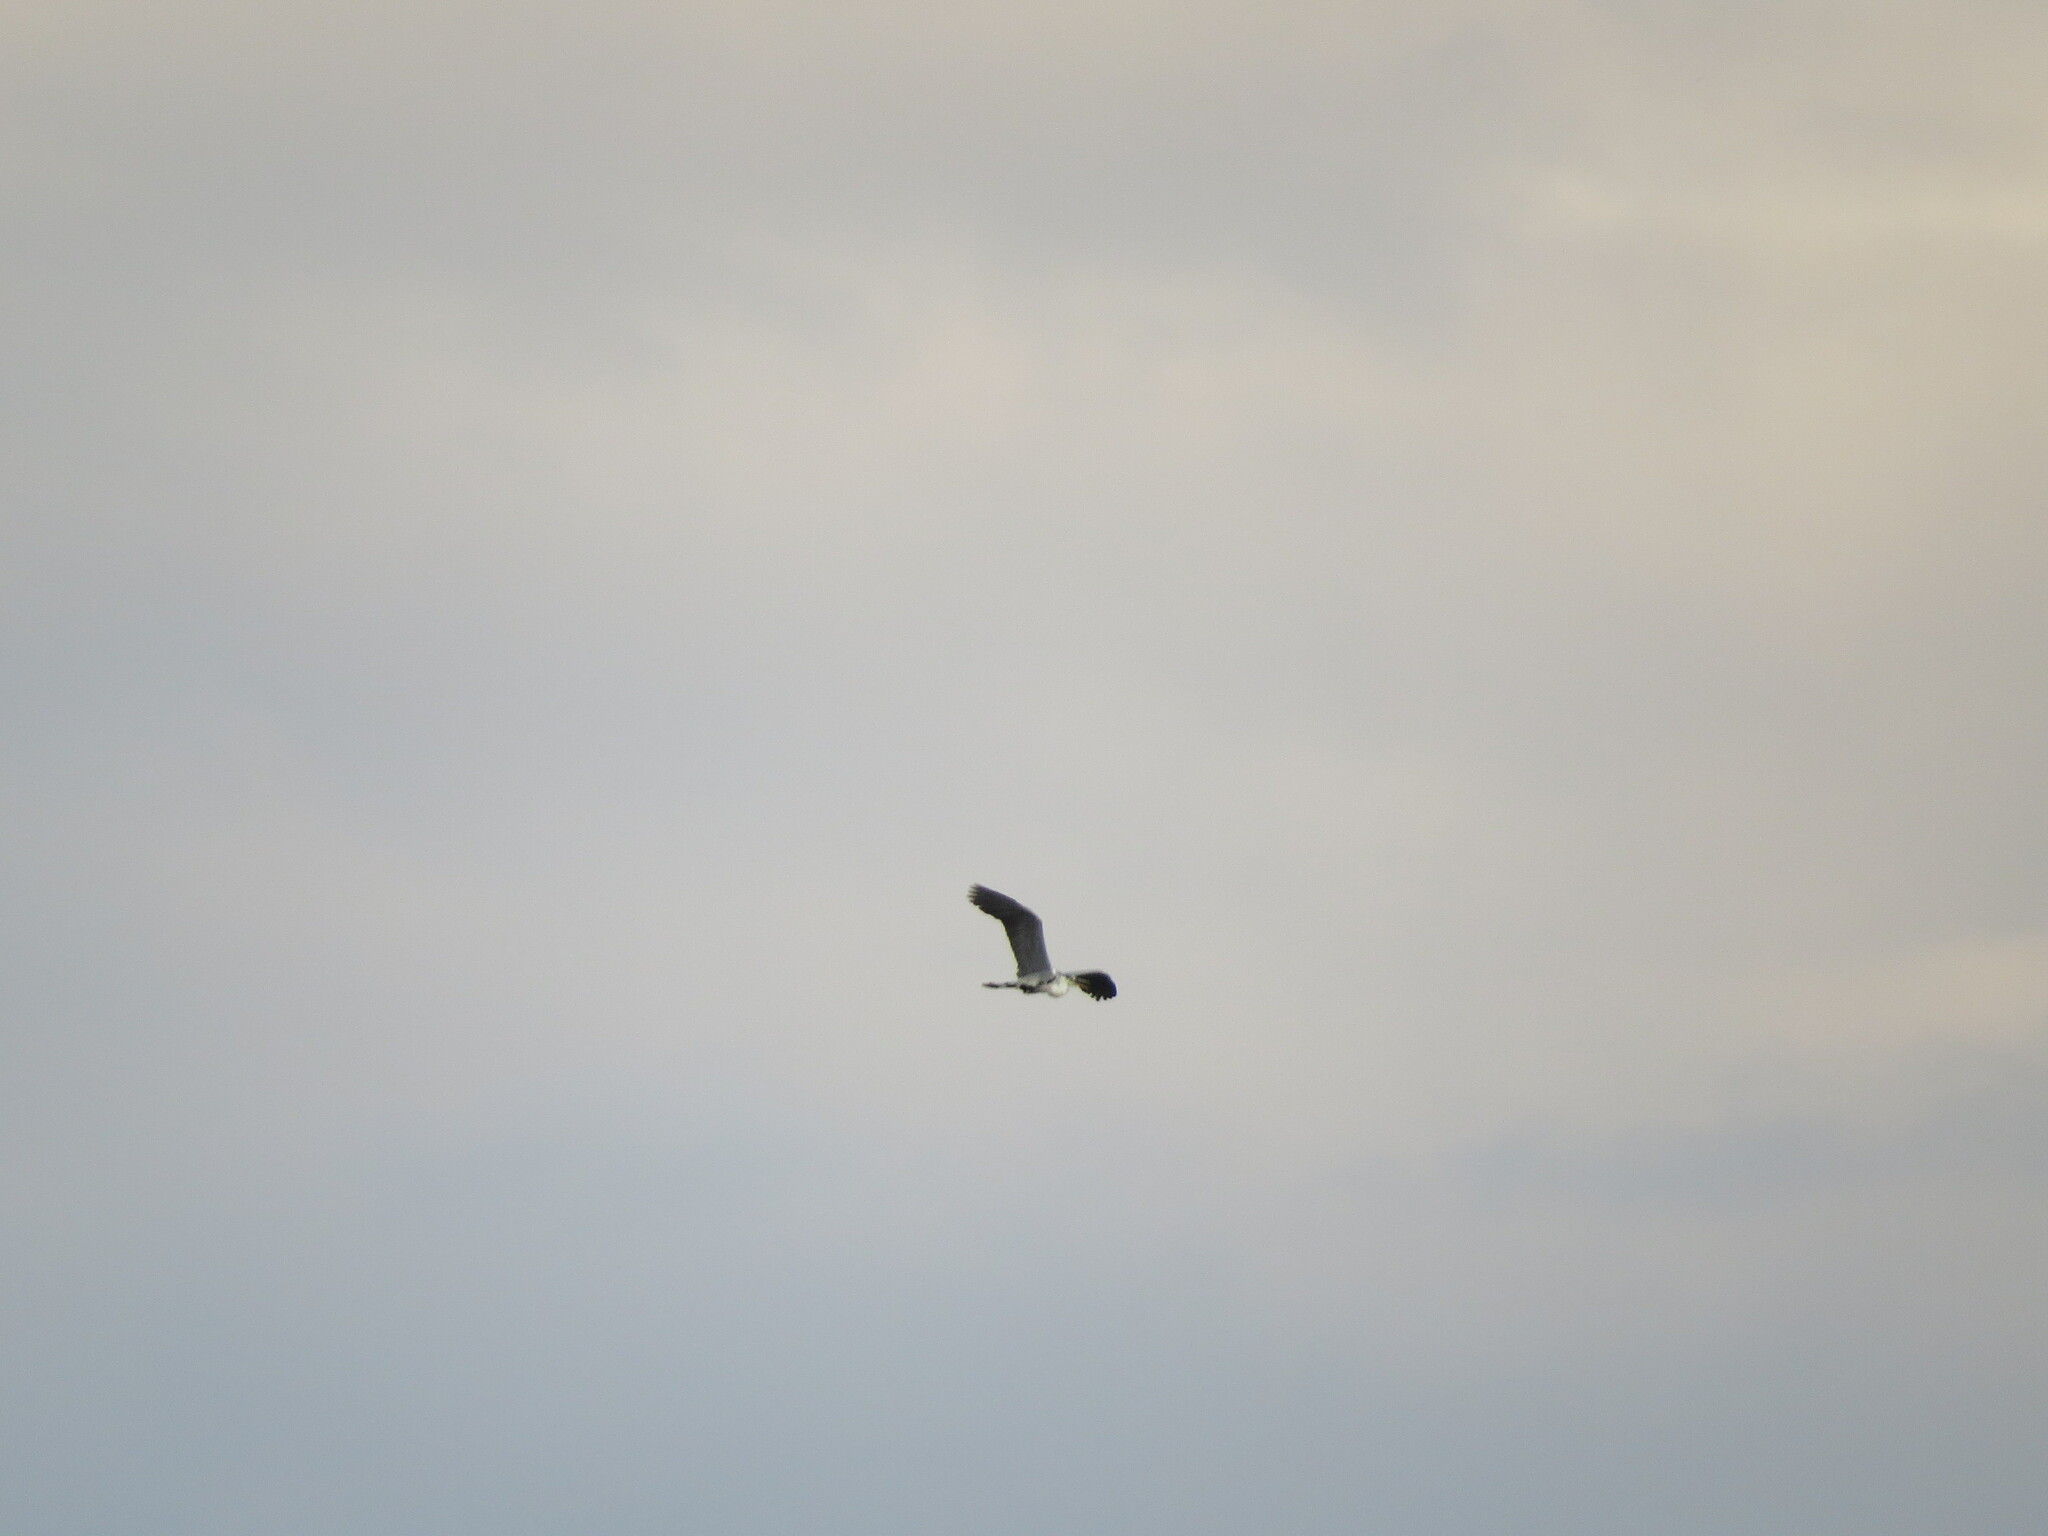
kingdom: Animalia
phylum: Chordata
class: Aves
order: Pelecaniformes
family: Ardeidae
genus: Ardea
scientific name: Ardea cinerea
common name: Grey heron
